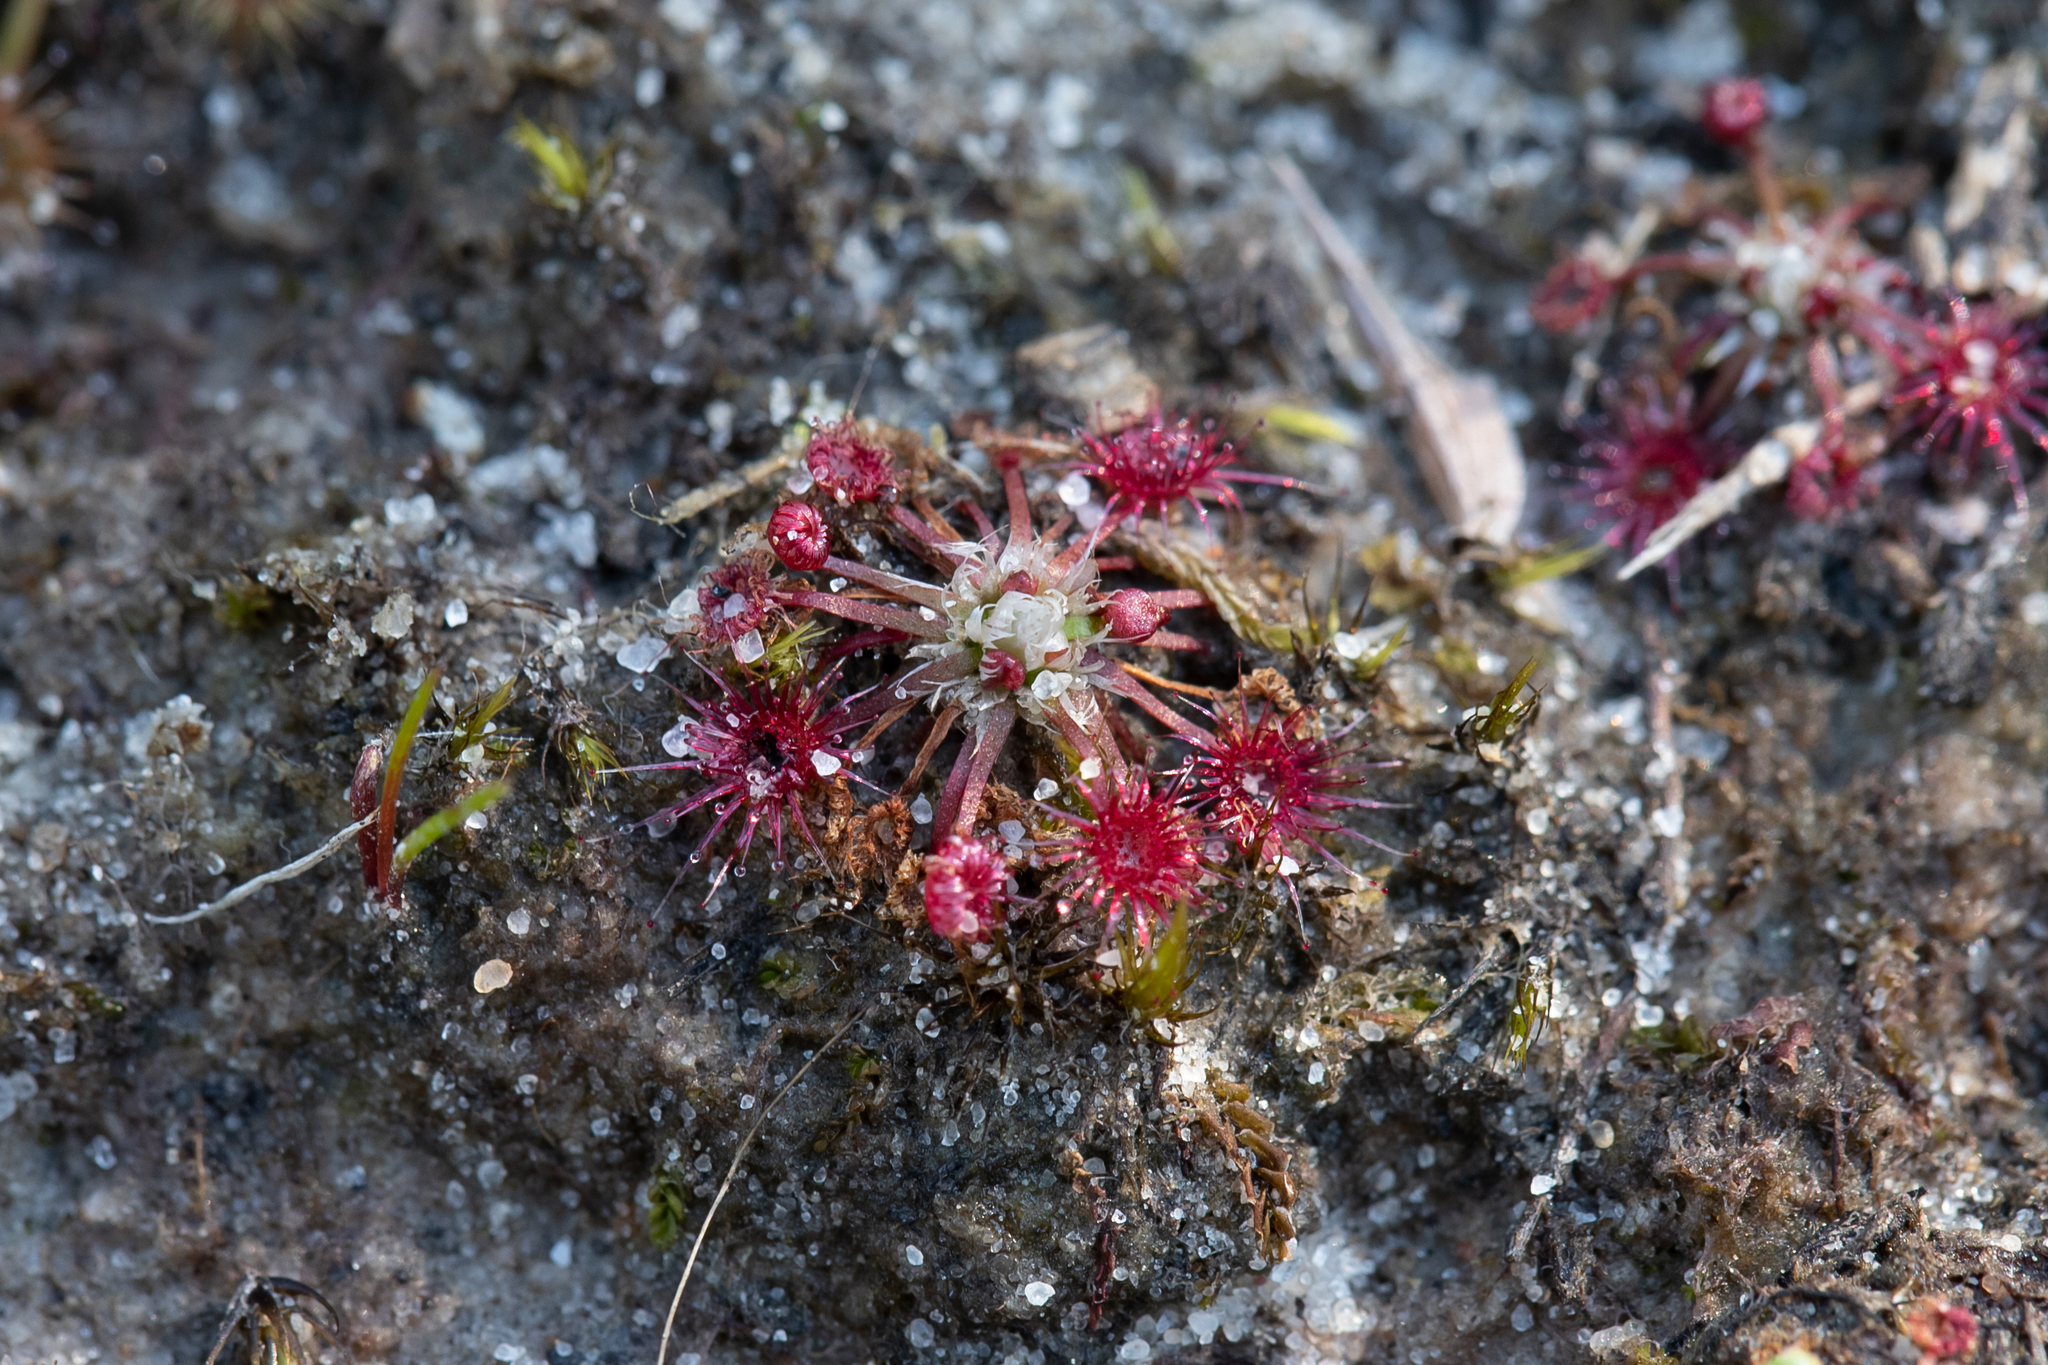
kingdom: Plantae
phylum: Tracheophyta
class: Magnoliopsida
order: Caryophyllales
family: Droseraceae
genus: Drosera
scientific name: Drosera pygmaea
